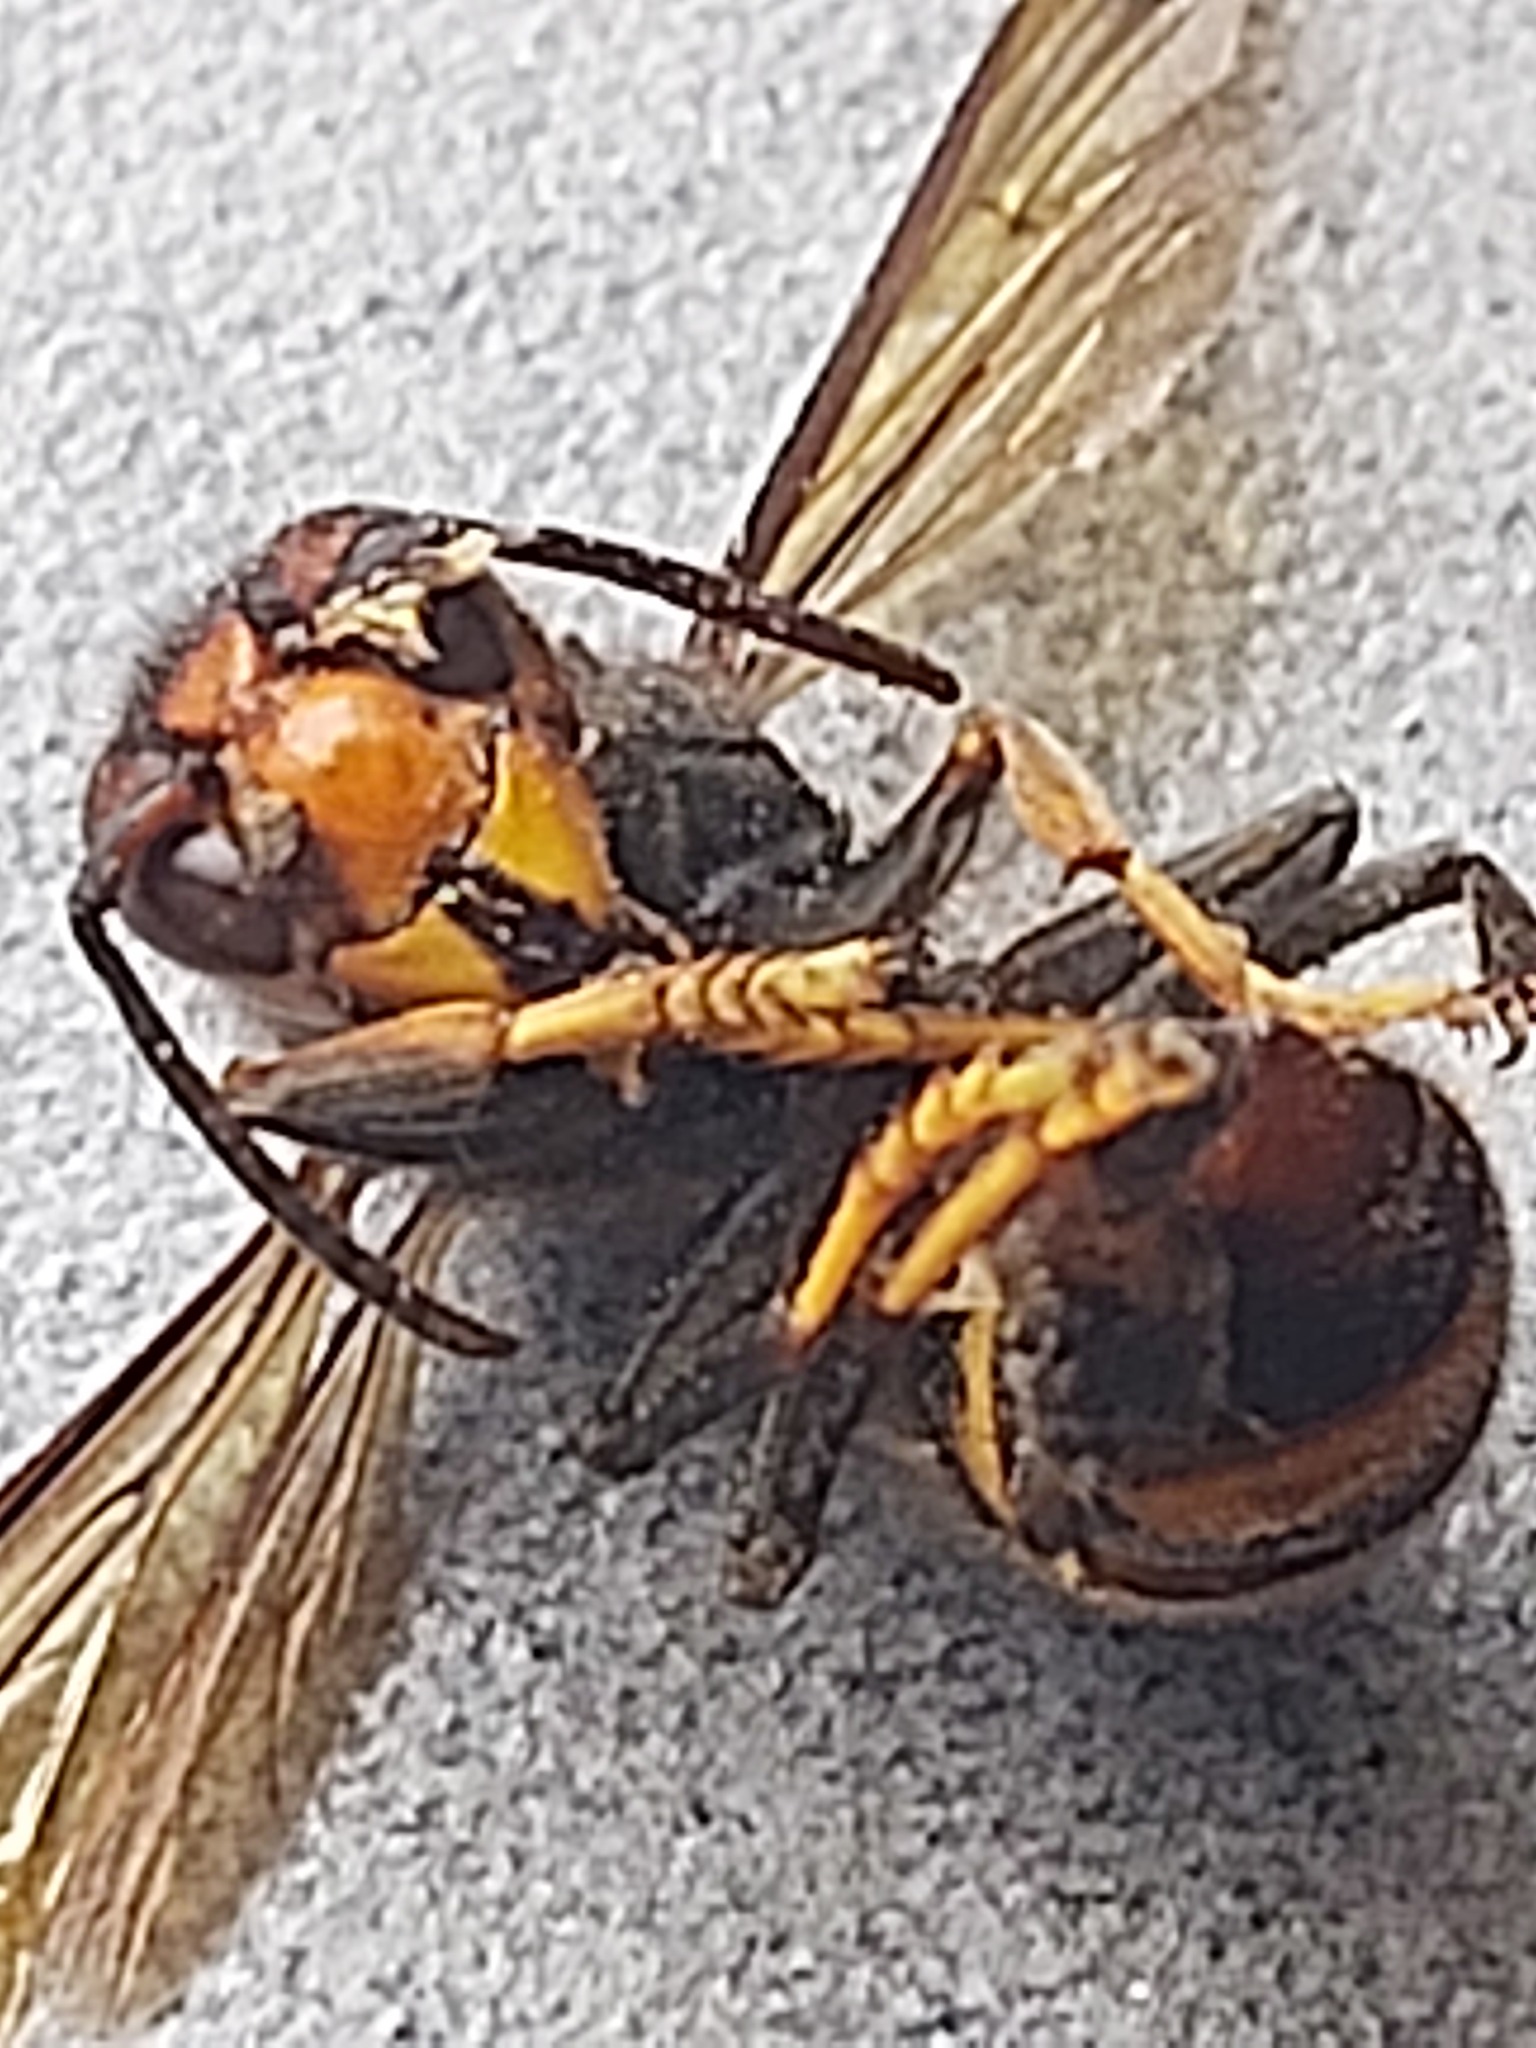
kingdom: Animalia
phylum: Arthropoda
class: Insecta
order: Hymenoptera
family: Vespidae
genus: Vespa
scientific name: Vespa velutina
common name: Asian hornet
